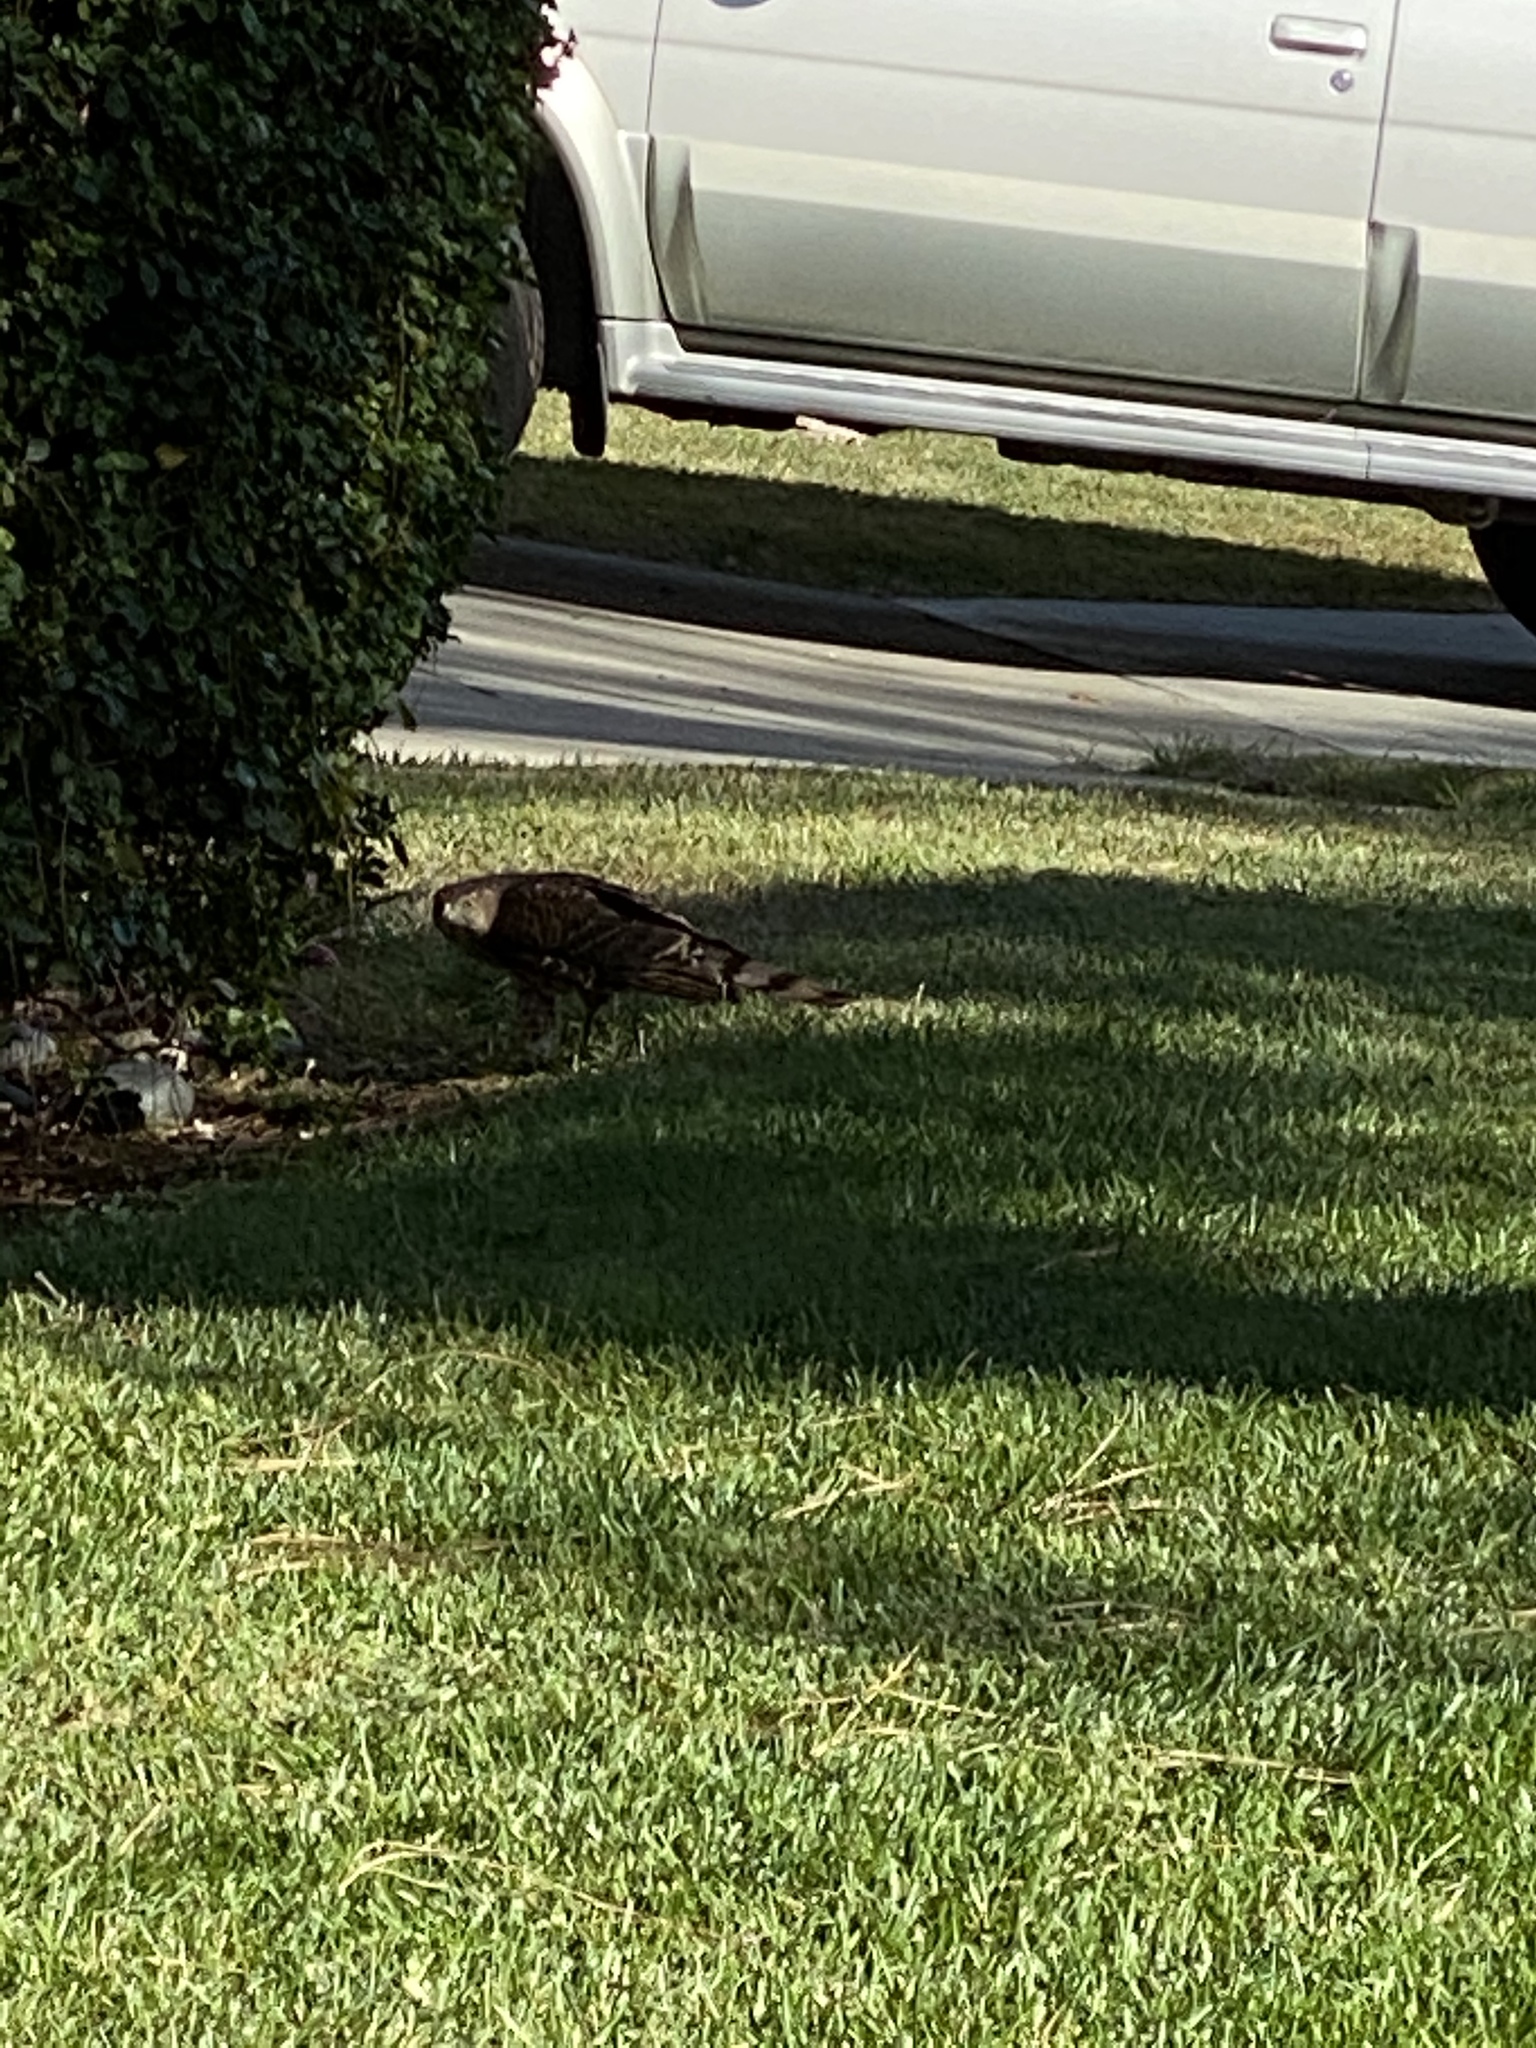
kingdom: Animalia
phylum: Chordata
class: Aves
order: Accipitriformes
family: Accipitridae
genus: Accipiter
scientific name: Accipiter cooperii
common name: Cooper's hawk
